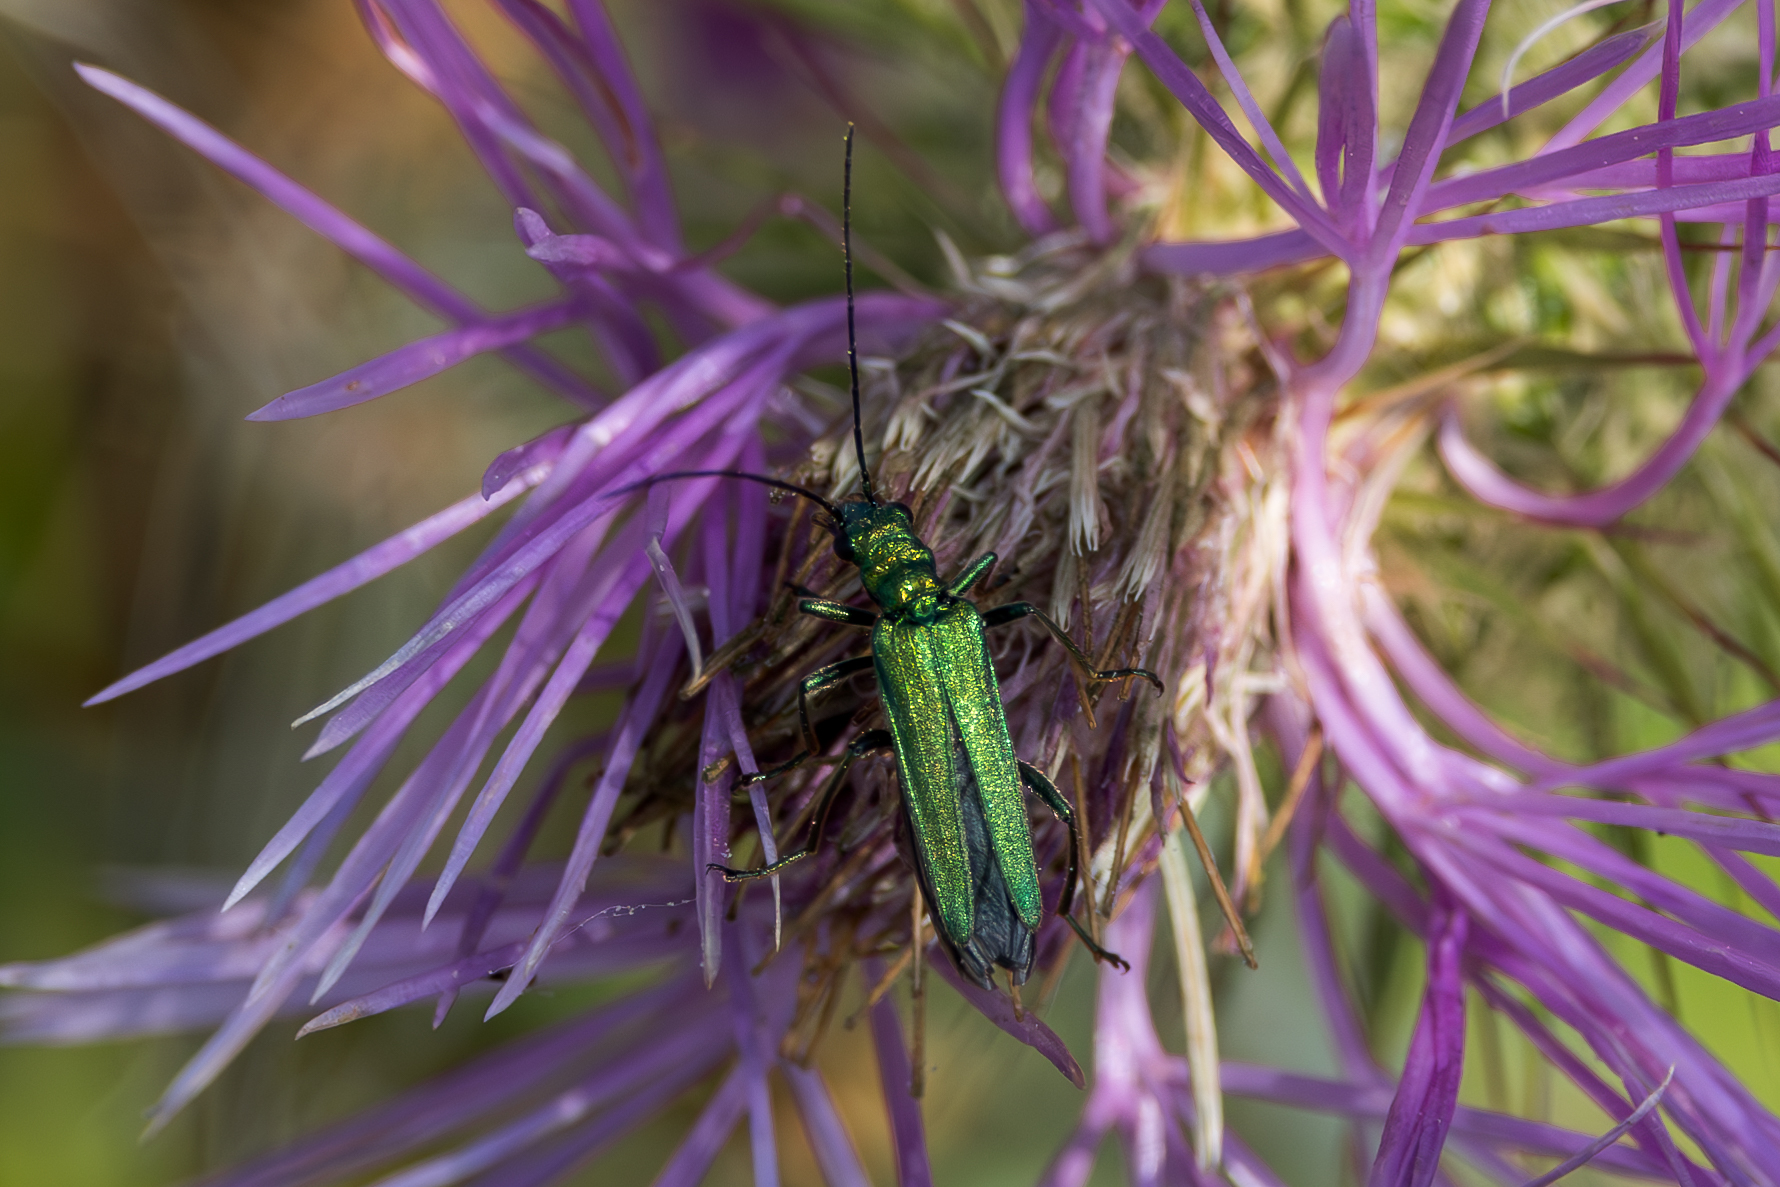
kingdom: Animalia
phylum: Arthropoda
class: Insecta
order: Coleoptera
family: Oedemeridae
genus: Oedemera
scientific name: Oedemera nobilis
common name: Swollen-thighed beetle
